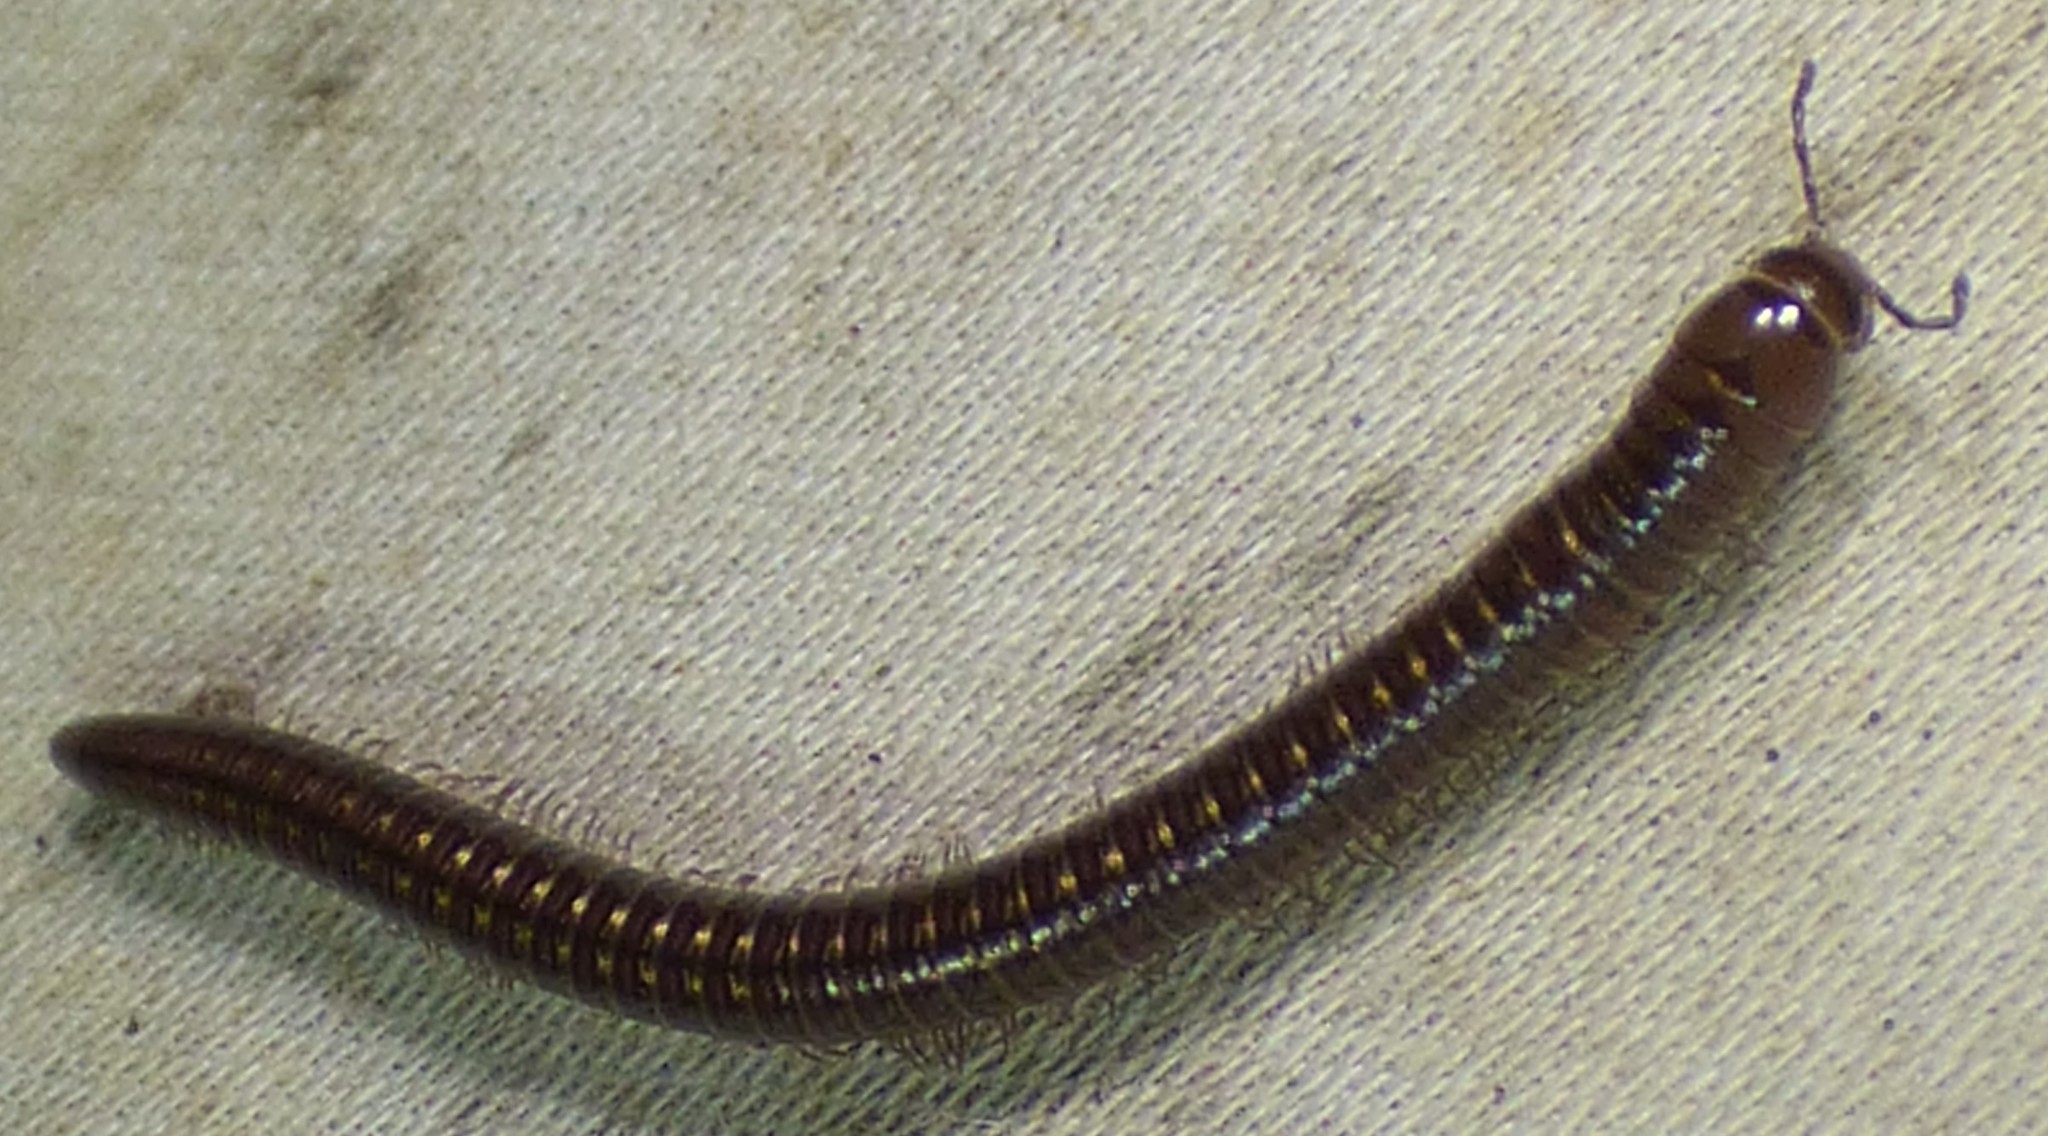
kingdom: Animalia
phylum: Arthropoda
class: Diplopoda
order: Julida
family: Julidae
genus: Ophyiulus
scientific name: Ophyiulus pilosus
